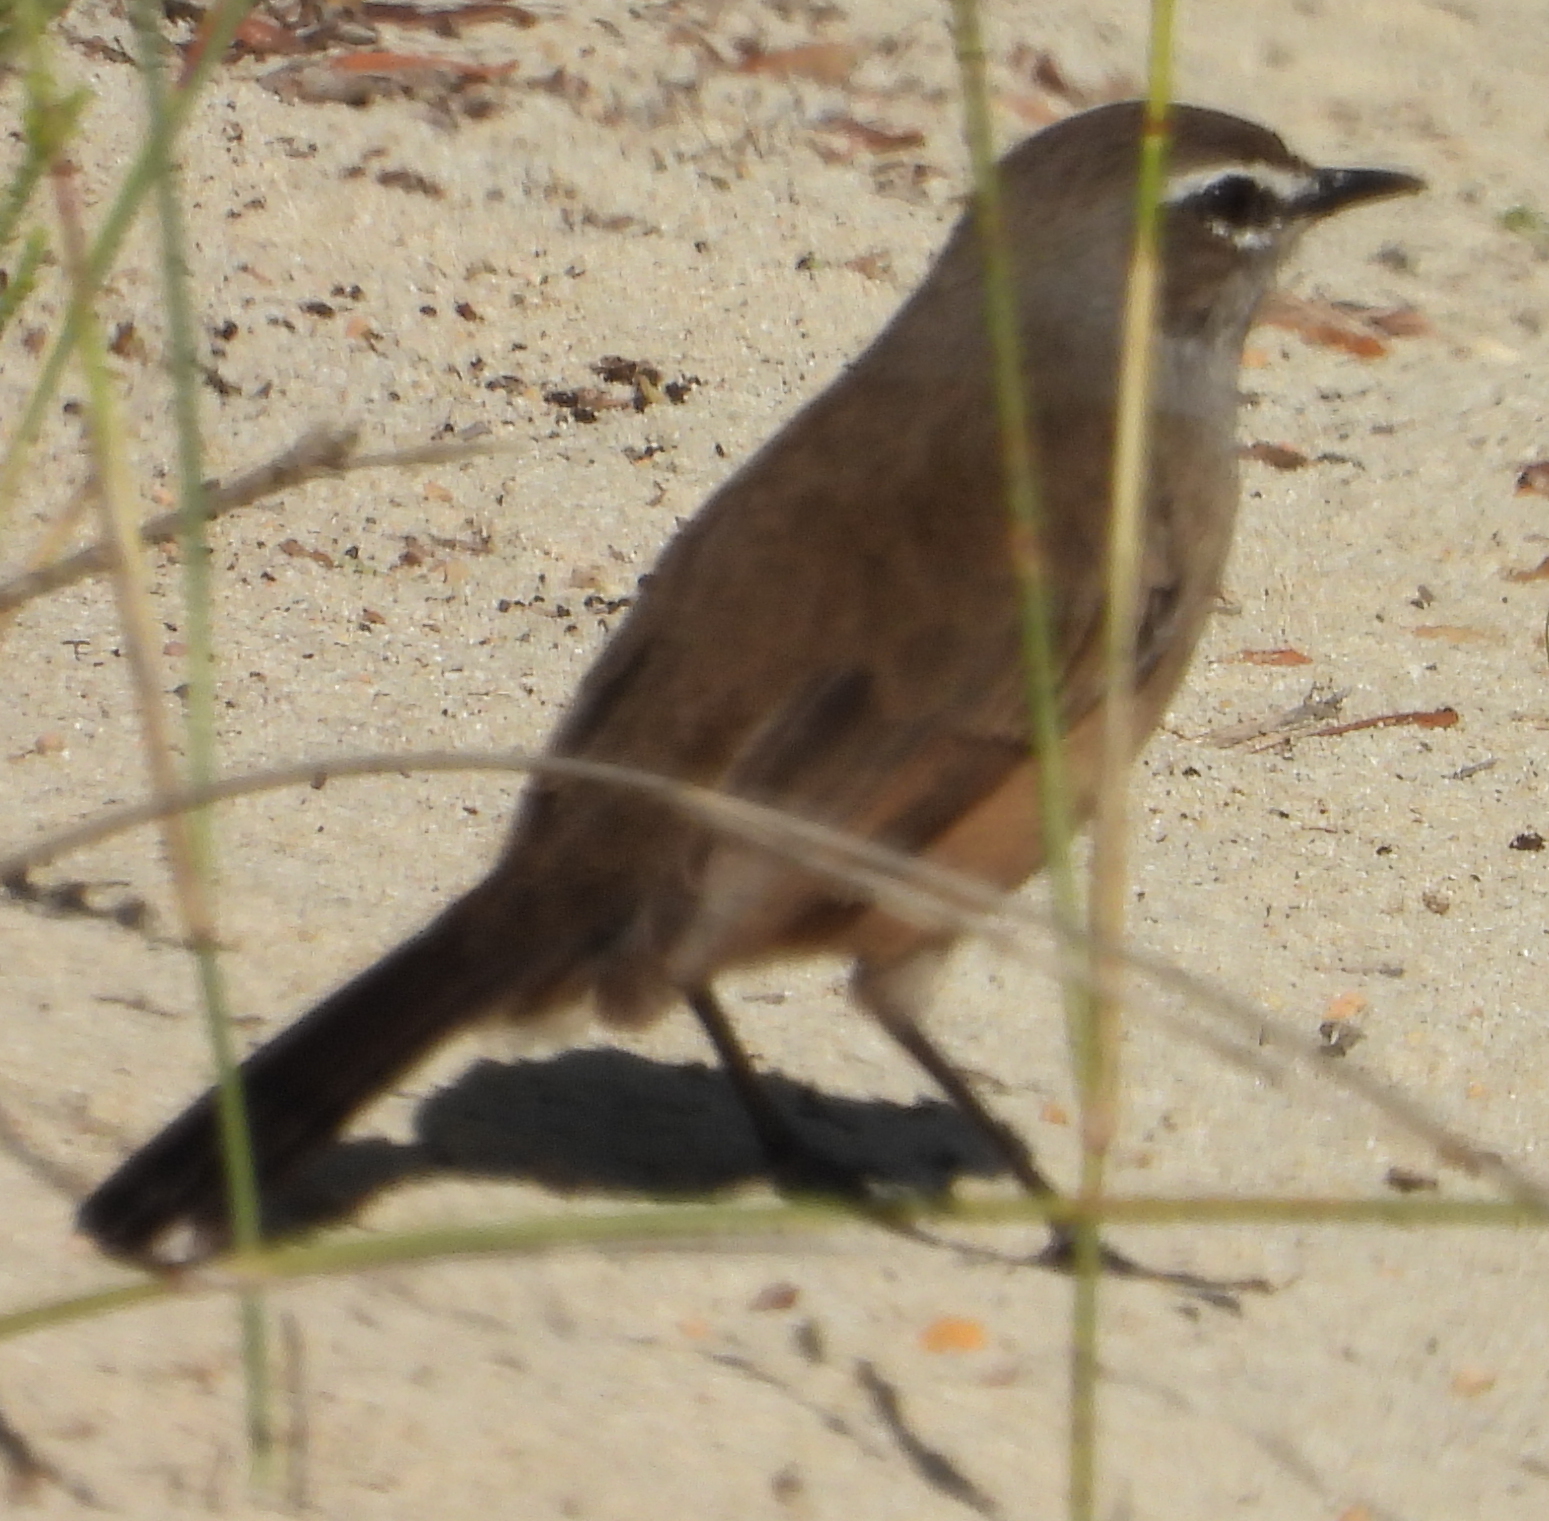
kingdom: Animalia
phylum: Chordata
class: Aves
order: Passeriformes
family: Muscicapidae
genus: Erythropygia
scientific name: Erythropygia coryphoeus
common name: Karoo scrub robin
